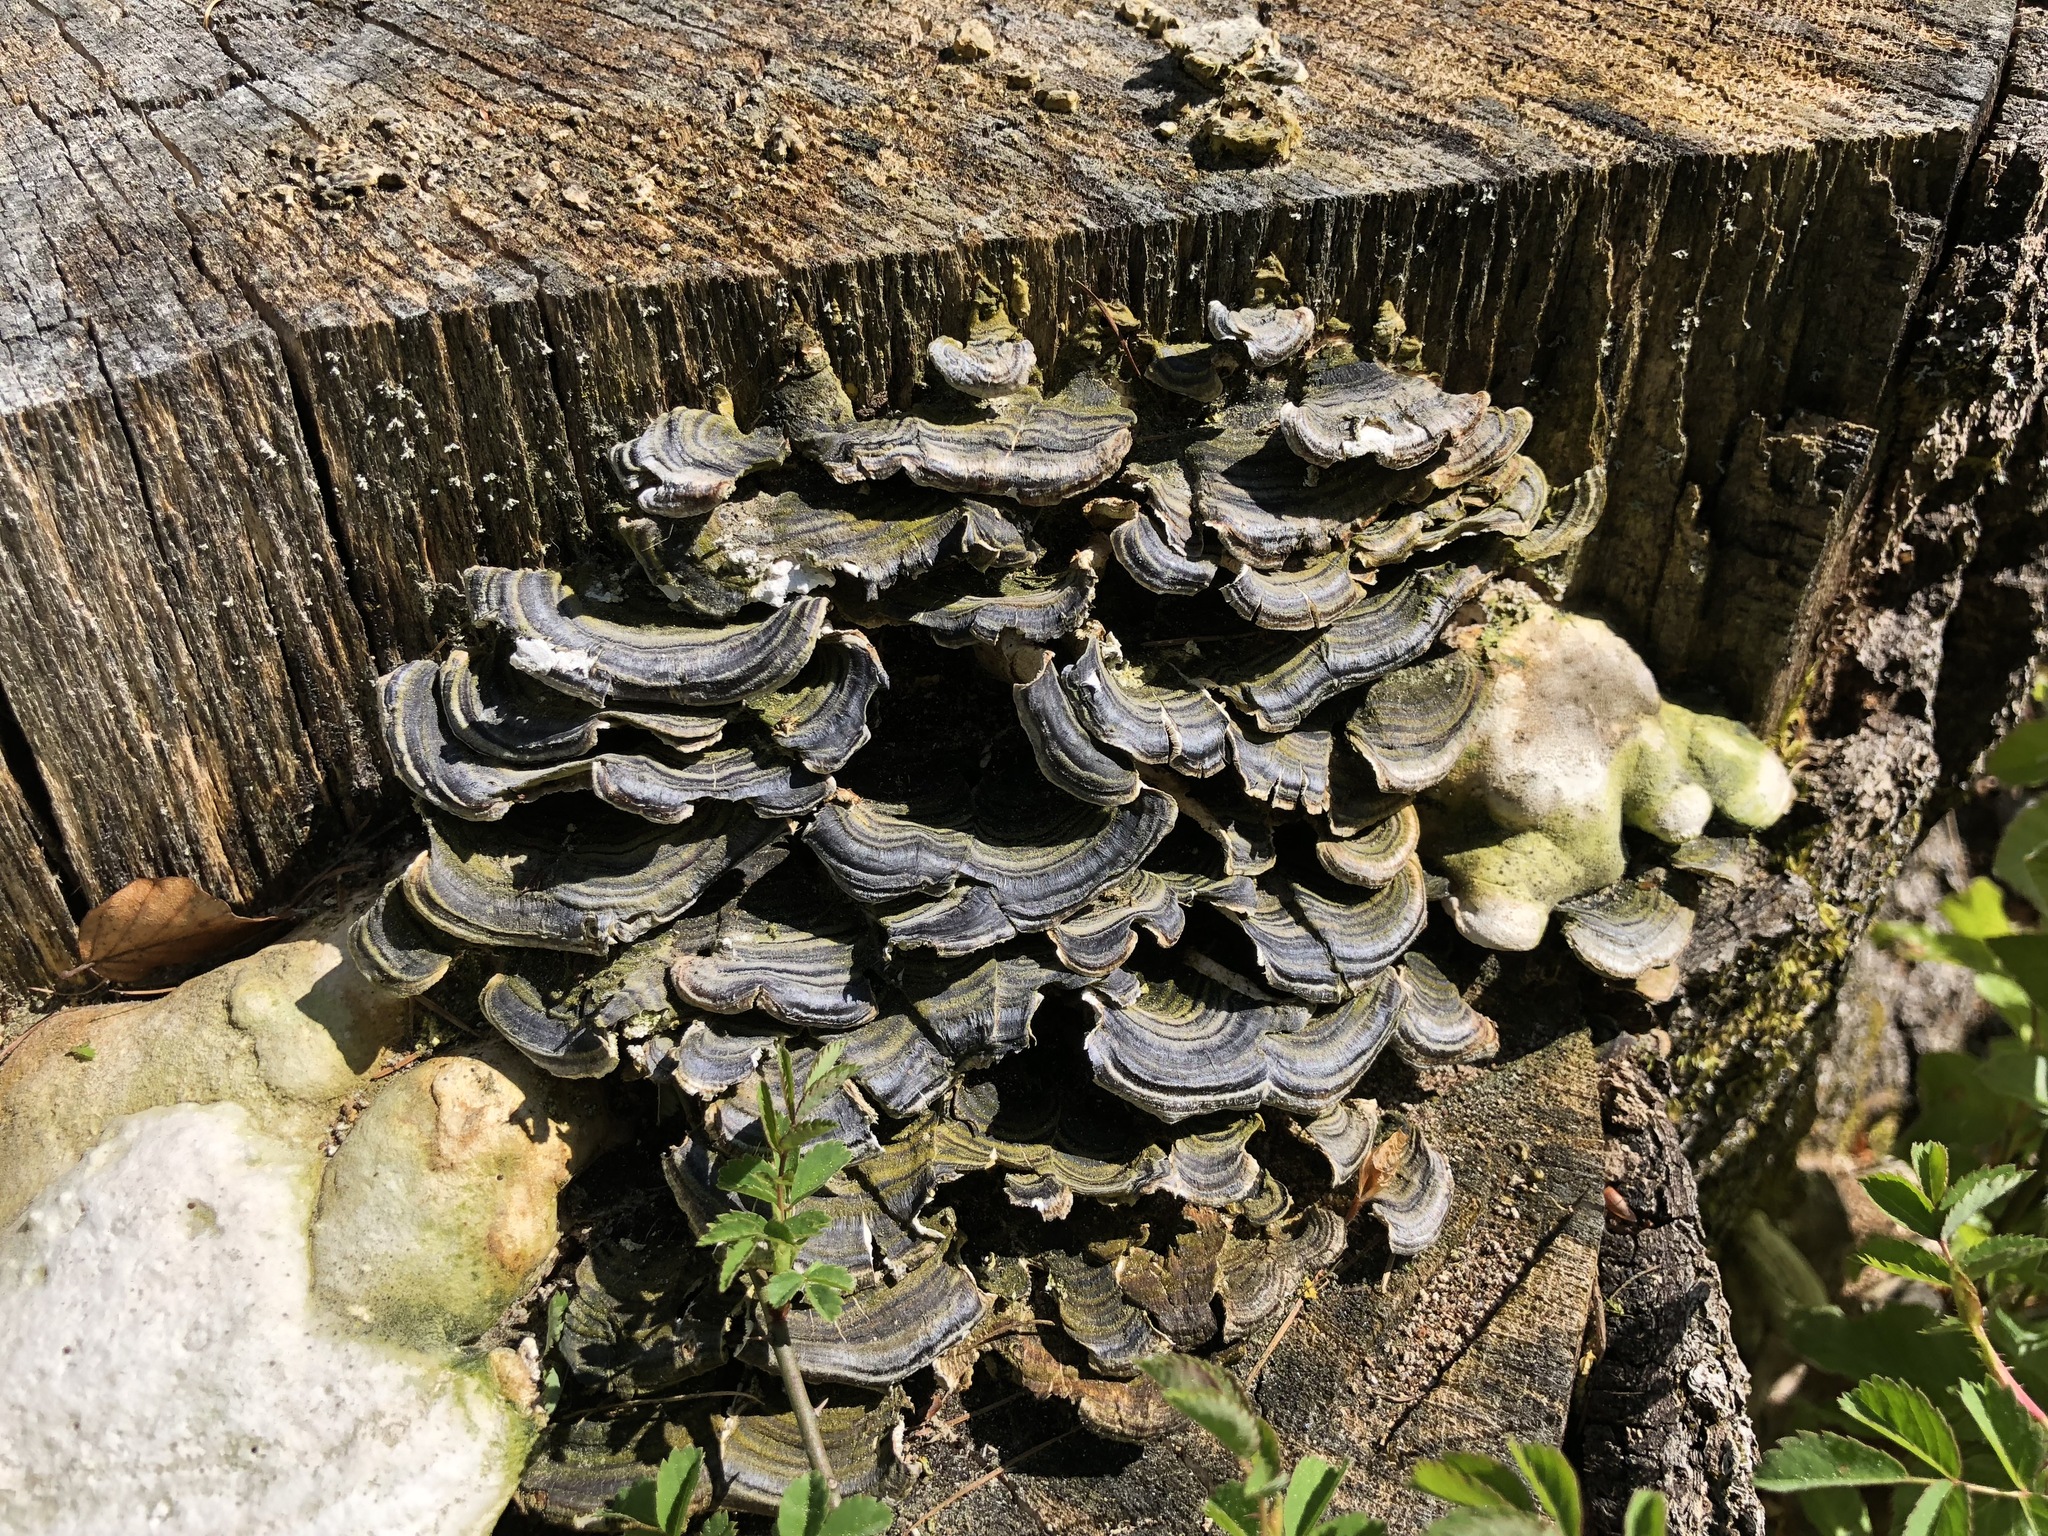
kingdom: Fungi
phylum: Basidiomycota
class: Agaricomycetes
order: Polyporales
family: Polyporaceae
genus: Trametes
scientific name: Trametes versicolor
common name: Turkeytail
